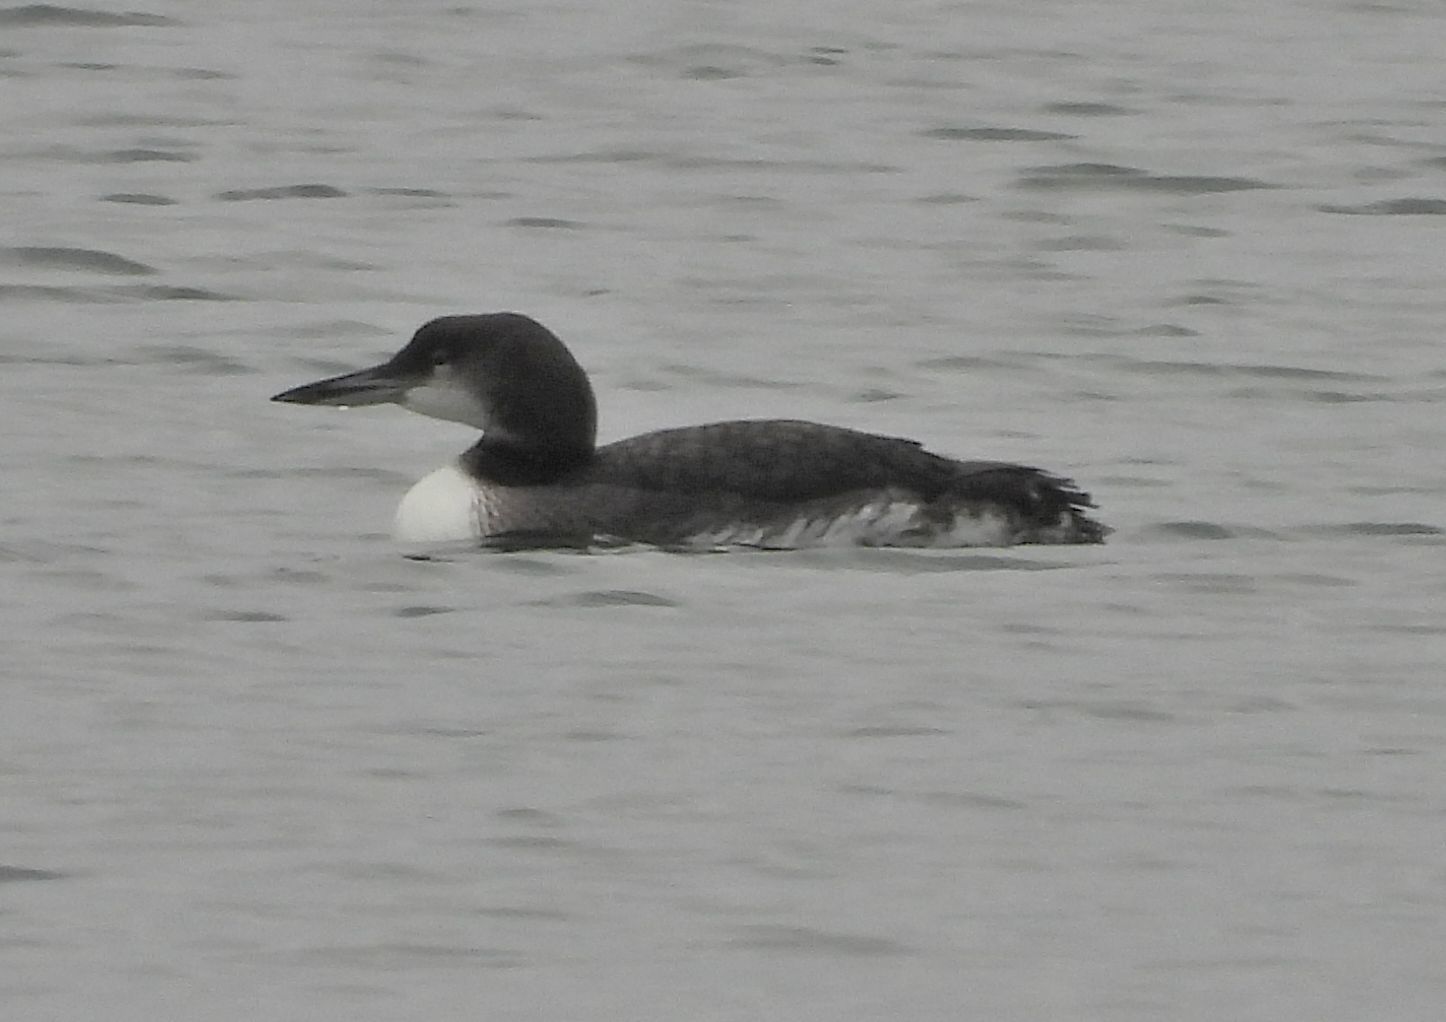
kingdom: Animalia
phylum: Chordata
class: Aves
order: Gaviiformes
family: Gaviidae
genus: Gavia
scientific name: Gavia immer
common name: Common loon
